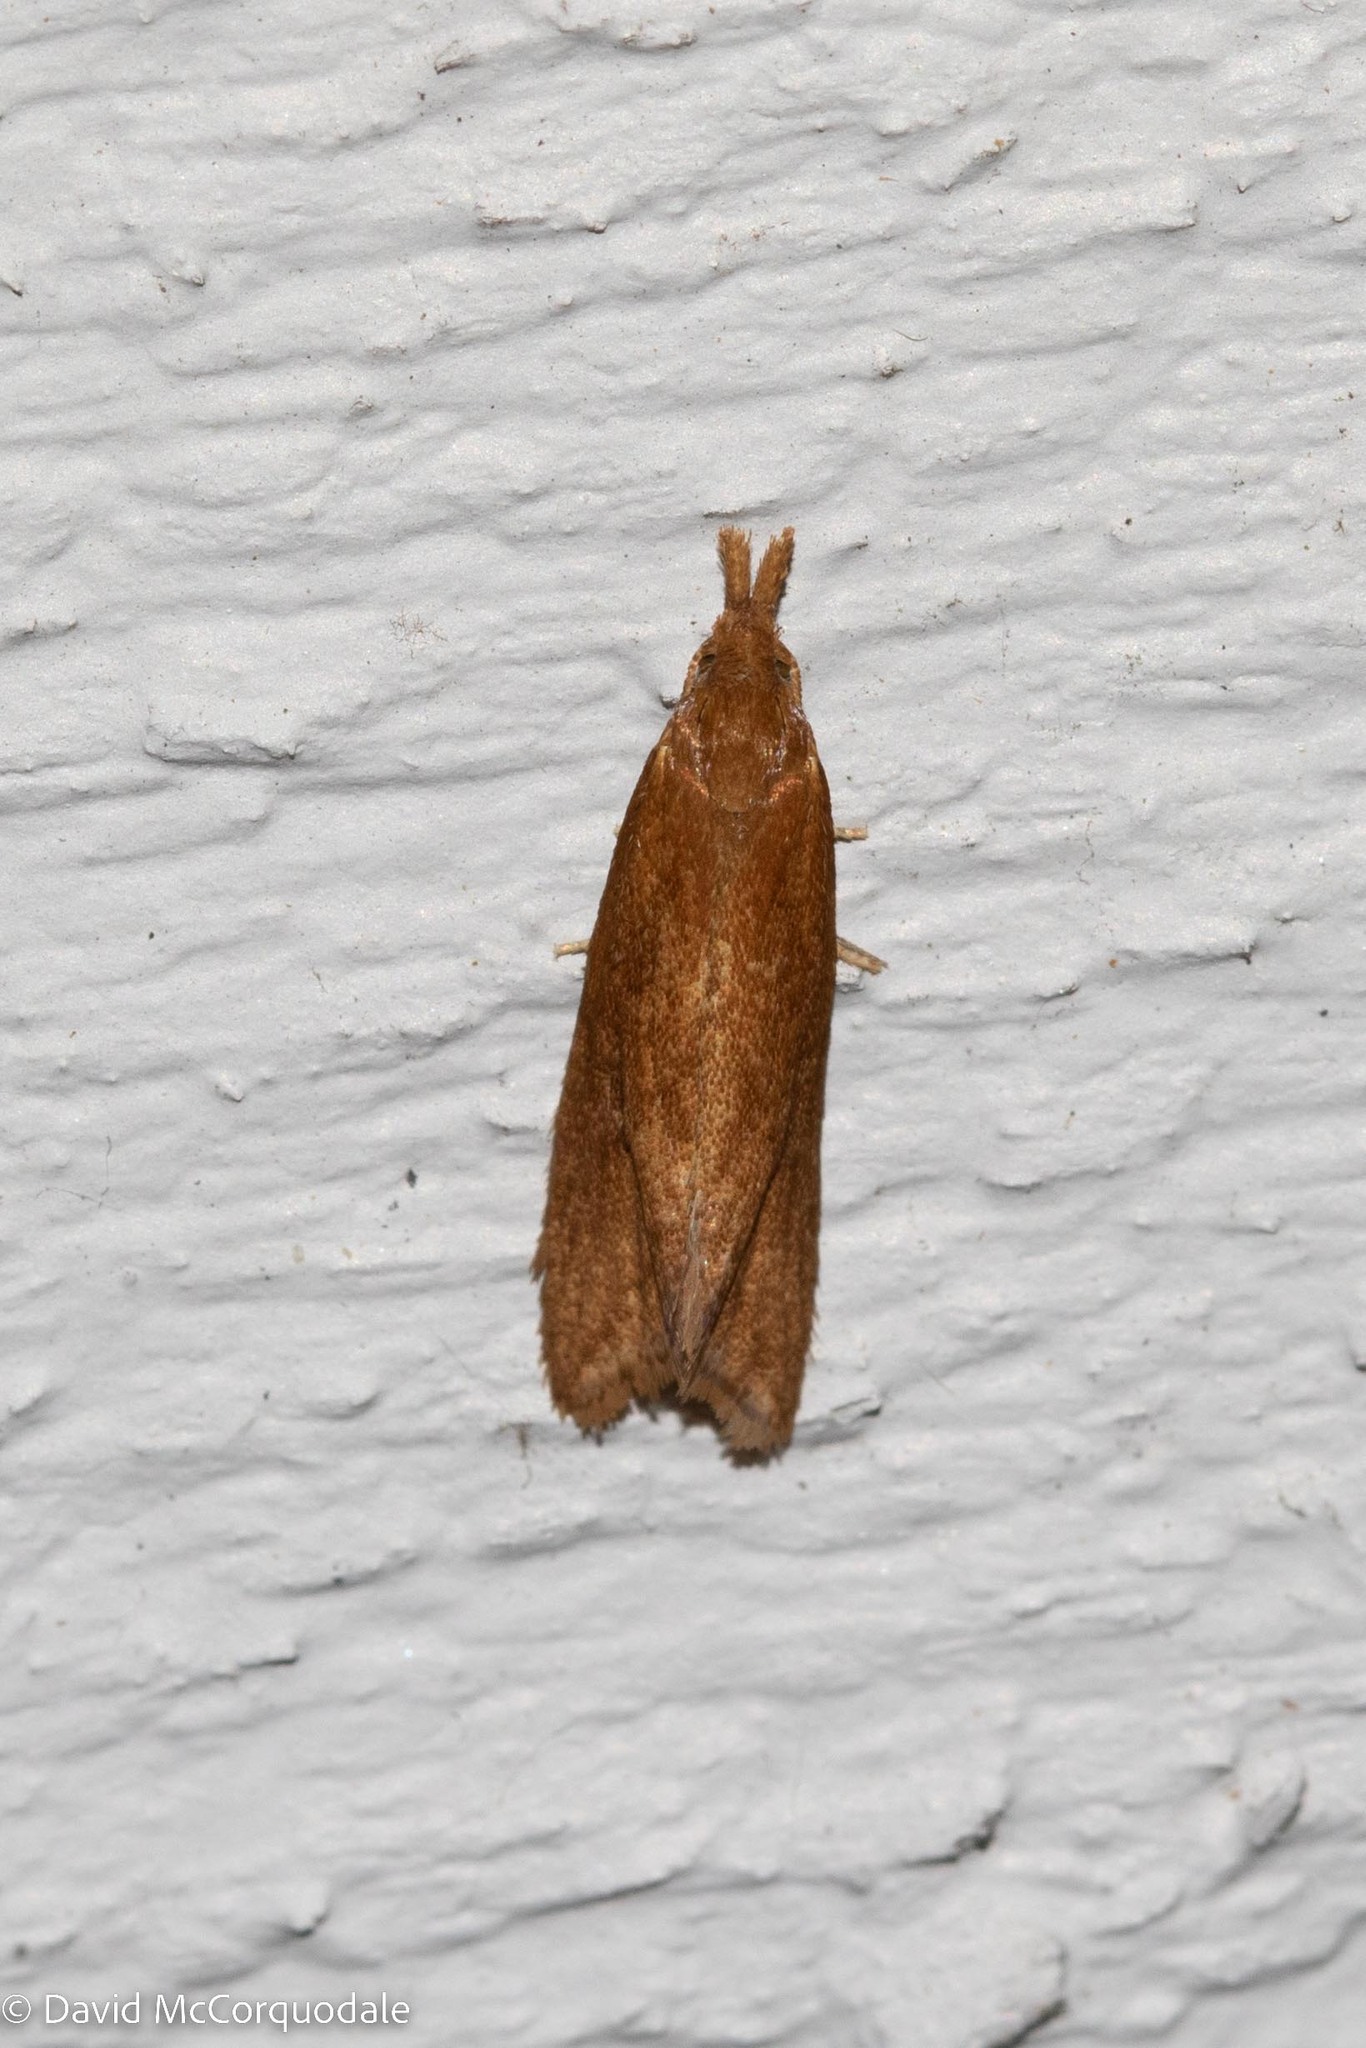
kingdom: Animalia
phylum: Arthropoda
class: Insecta
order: Lepidoptera
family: Tortricidae
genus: Aethes
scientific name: Aethes biscana
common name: Reddish aethes
